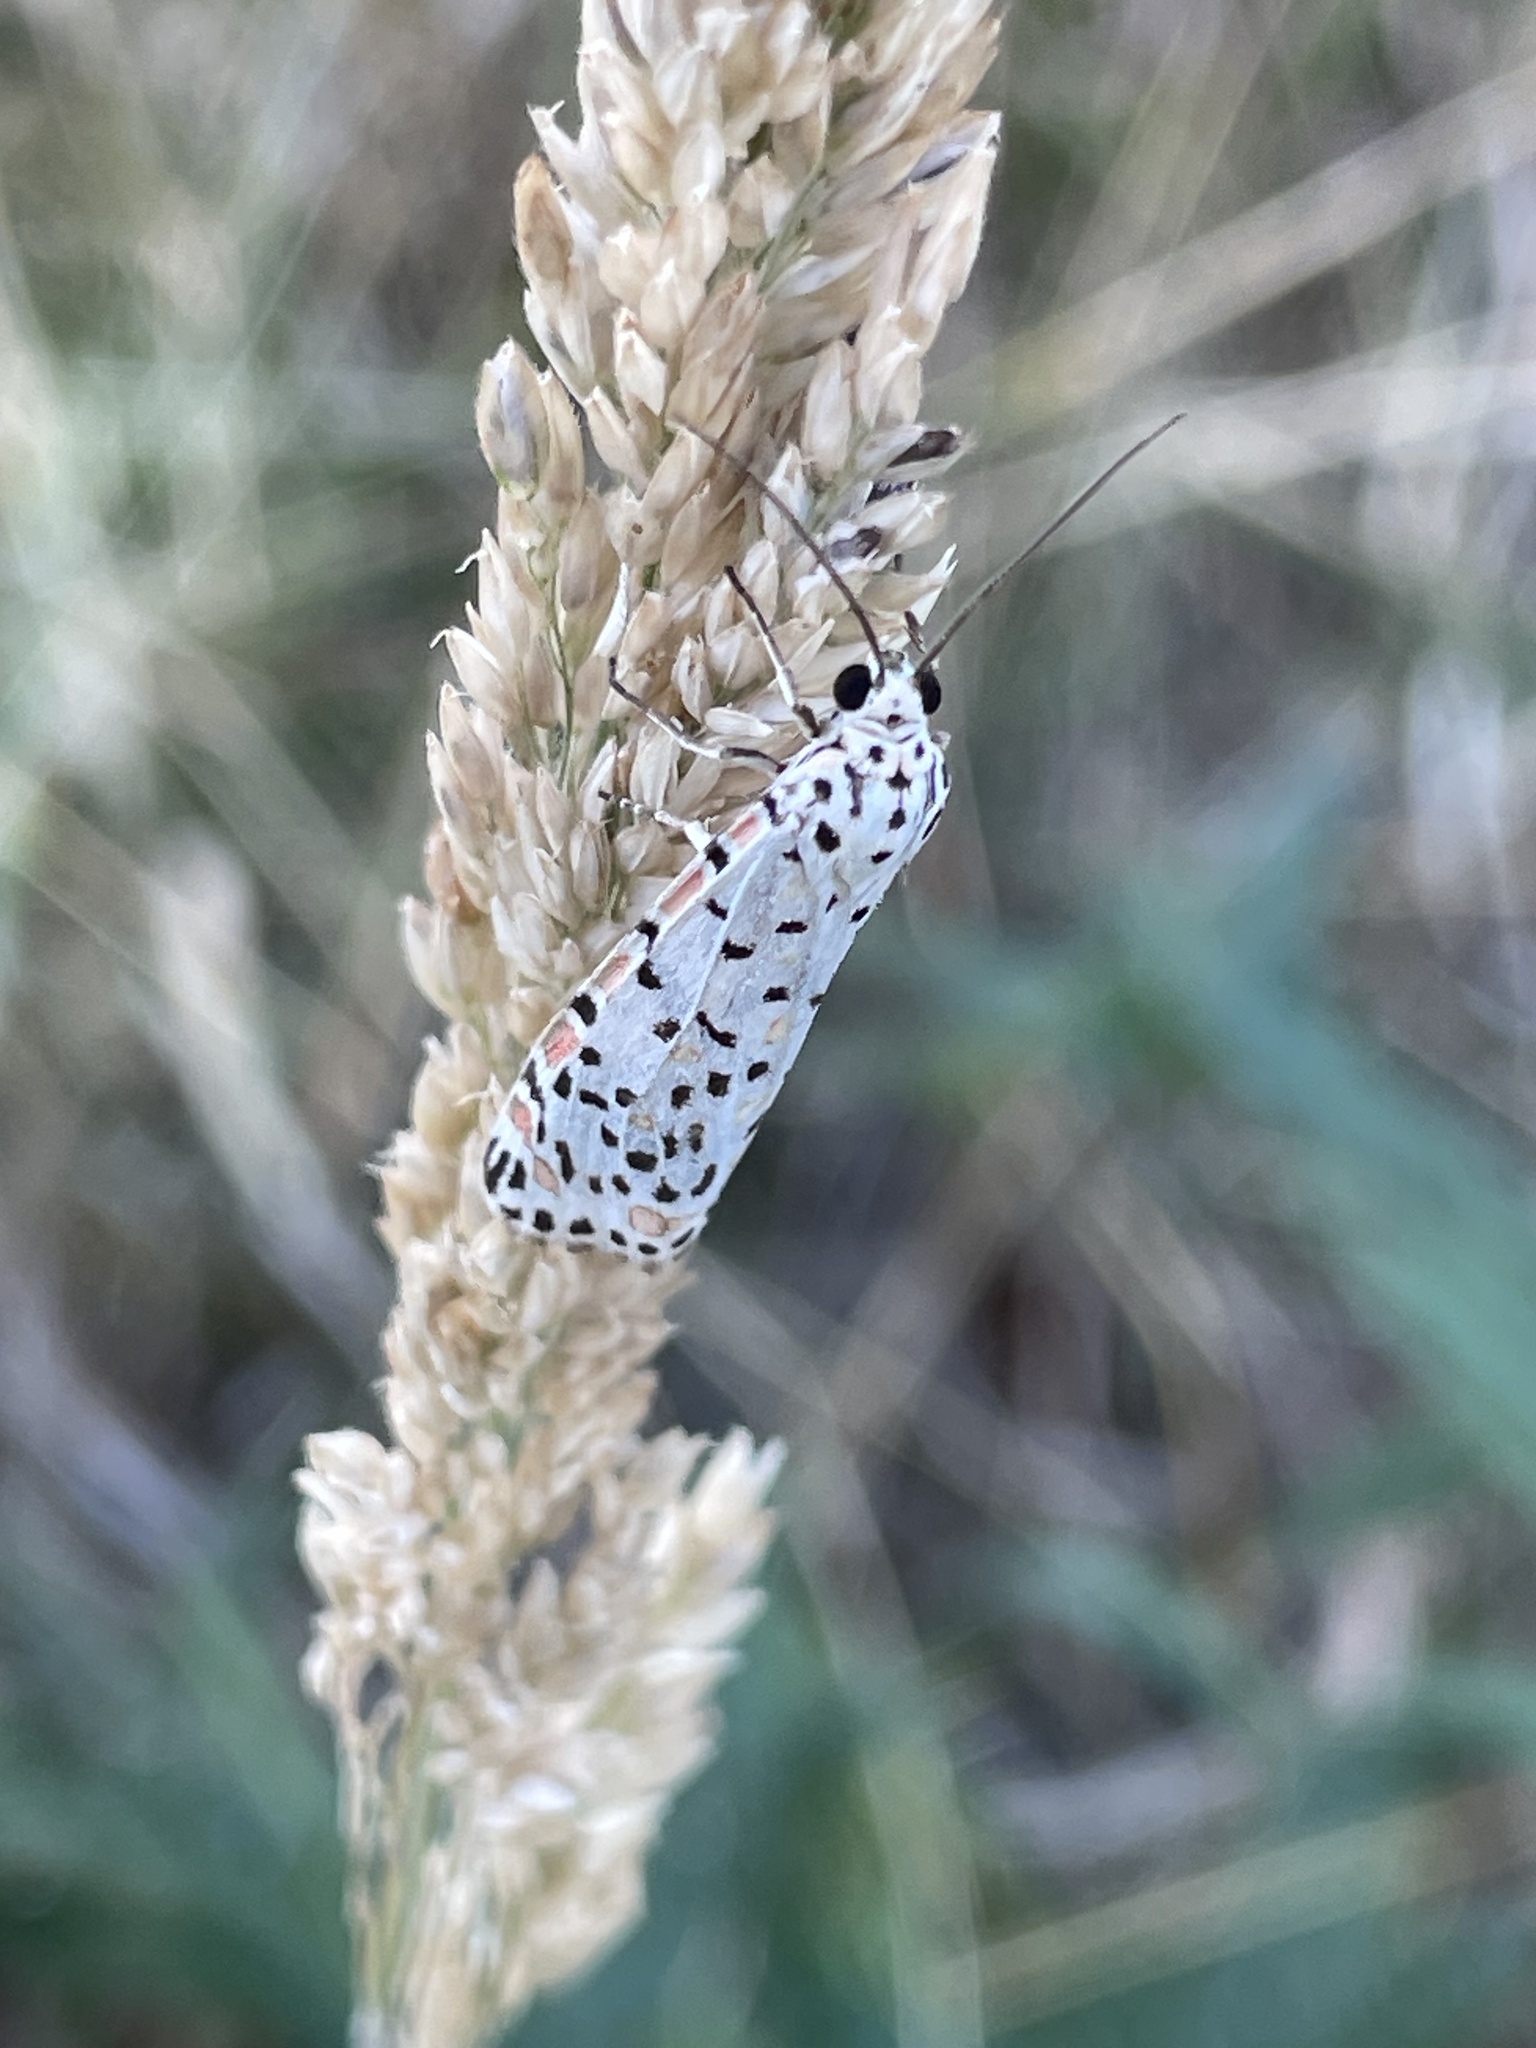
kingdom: Animalia
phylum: Arthropoda
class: Insecta
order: Lepidoptera
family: Erebidae
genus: Utetheisa
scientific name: Utetheisa pulchelloides
